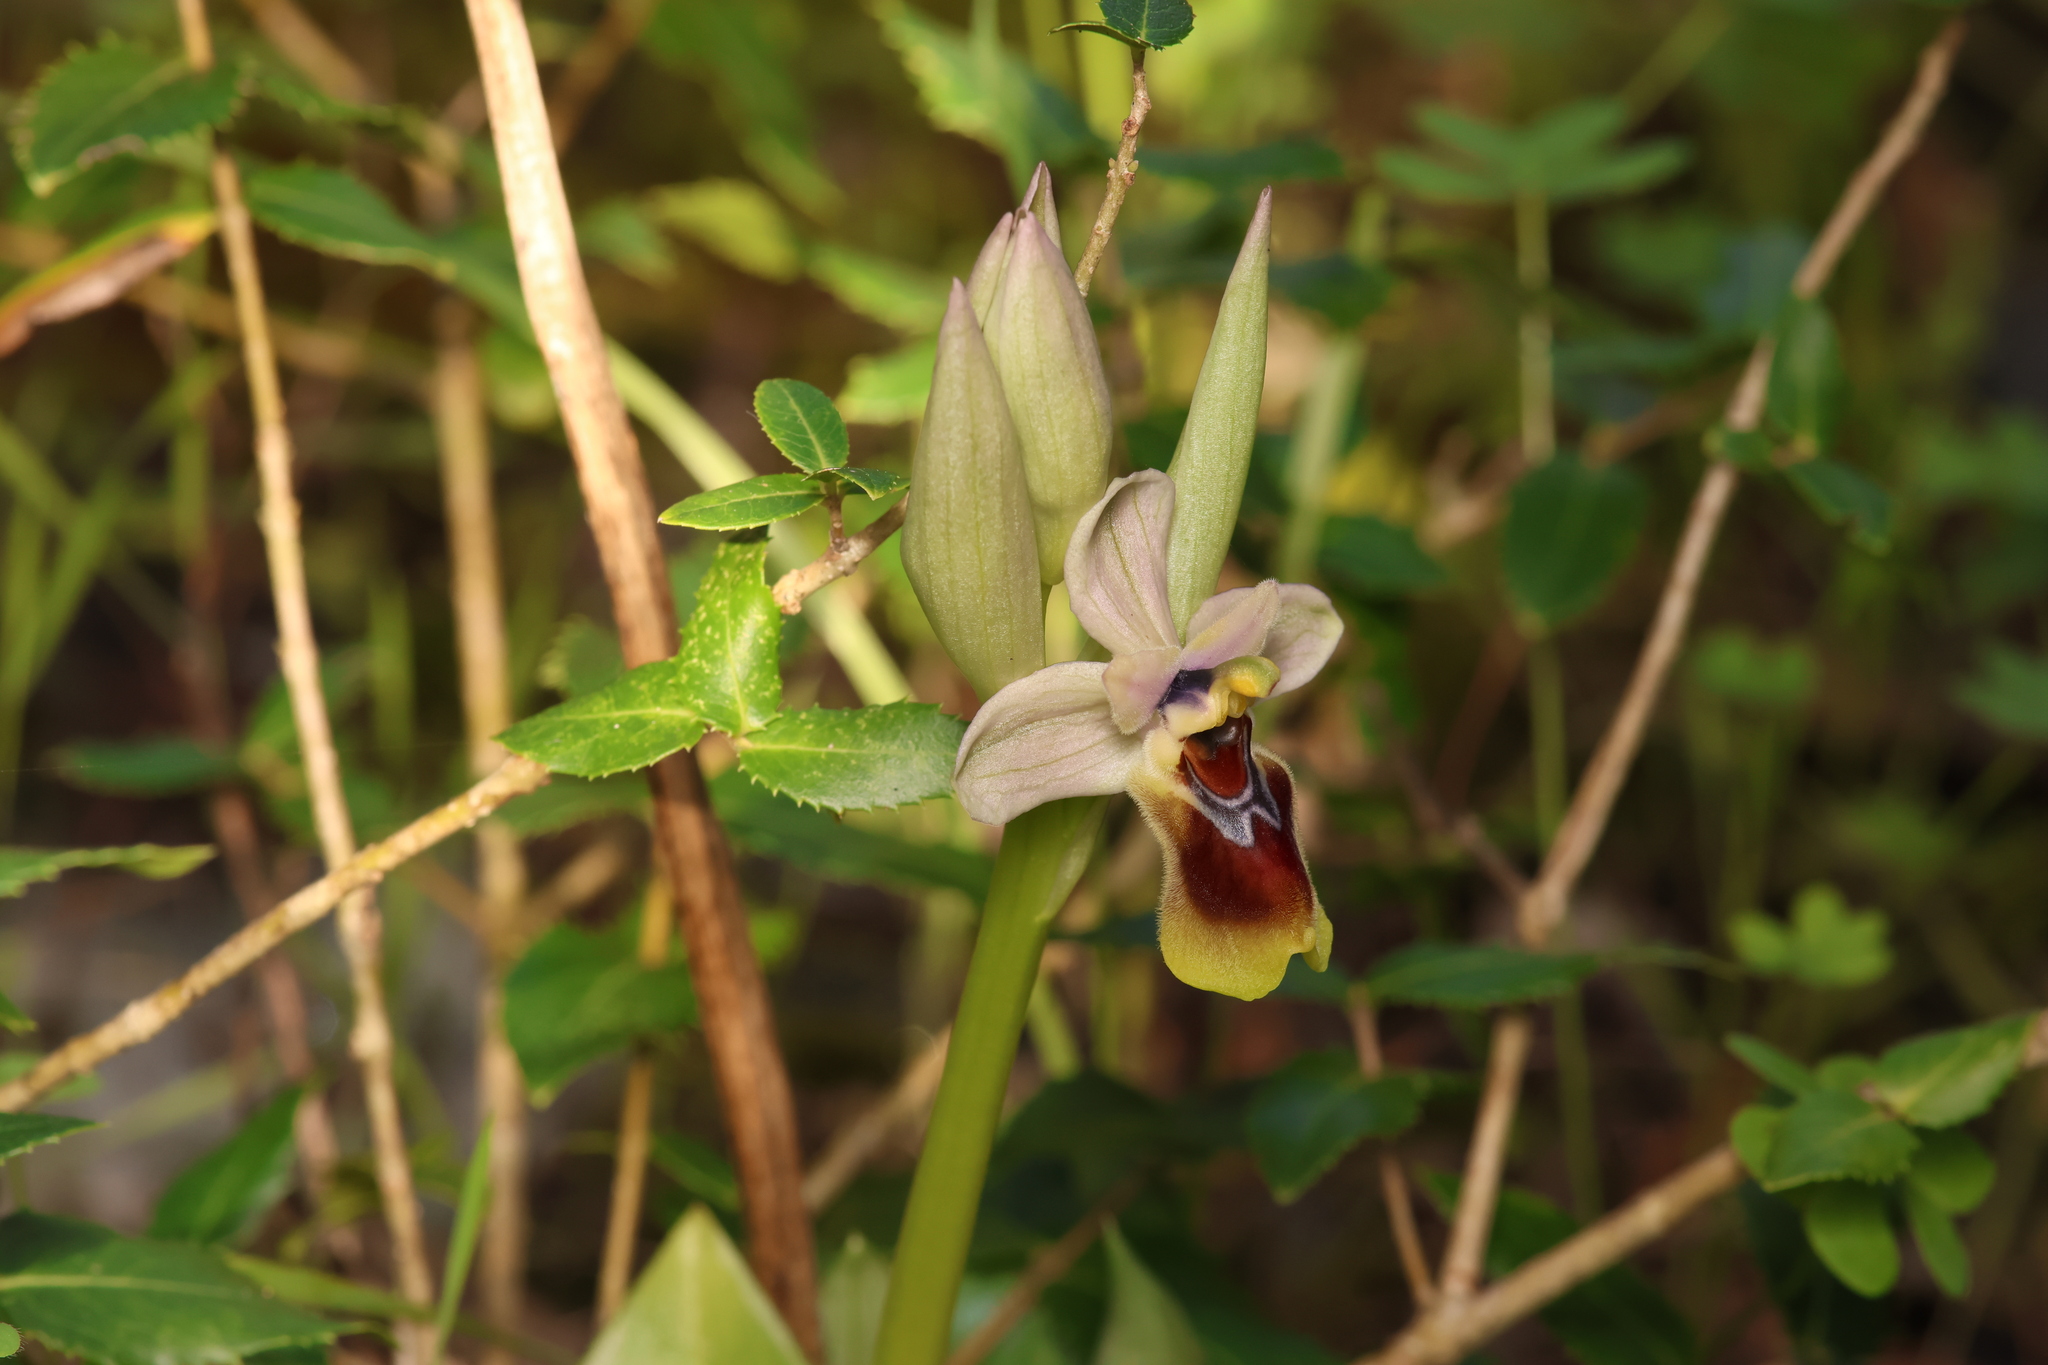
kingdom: Plantae
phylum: Tracheophyta
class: Liliopsida
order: Asparagales
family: Orchidaceae
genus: Ophrys
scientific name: Ophrys tenthredinifera
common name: Sawfly orchid
